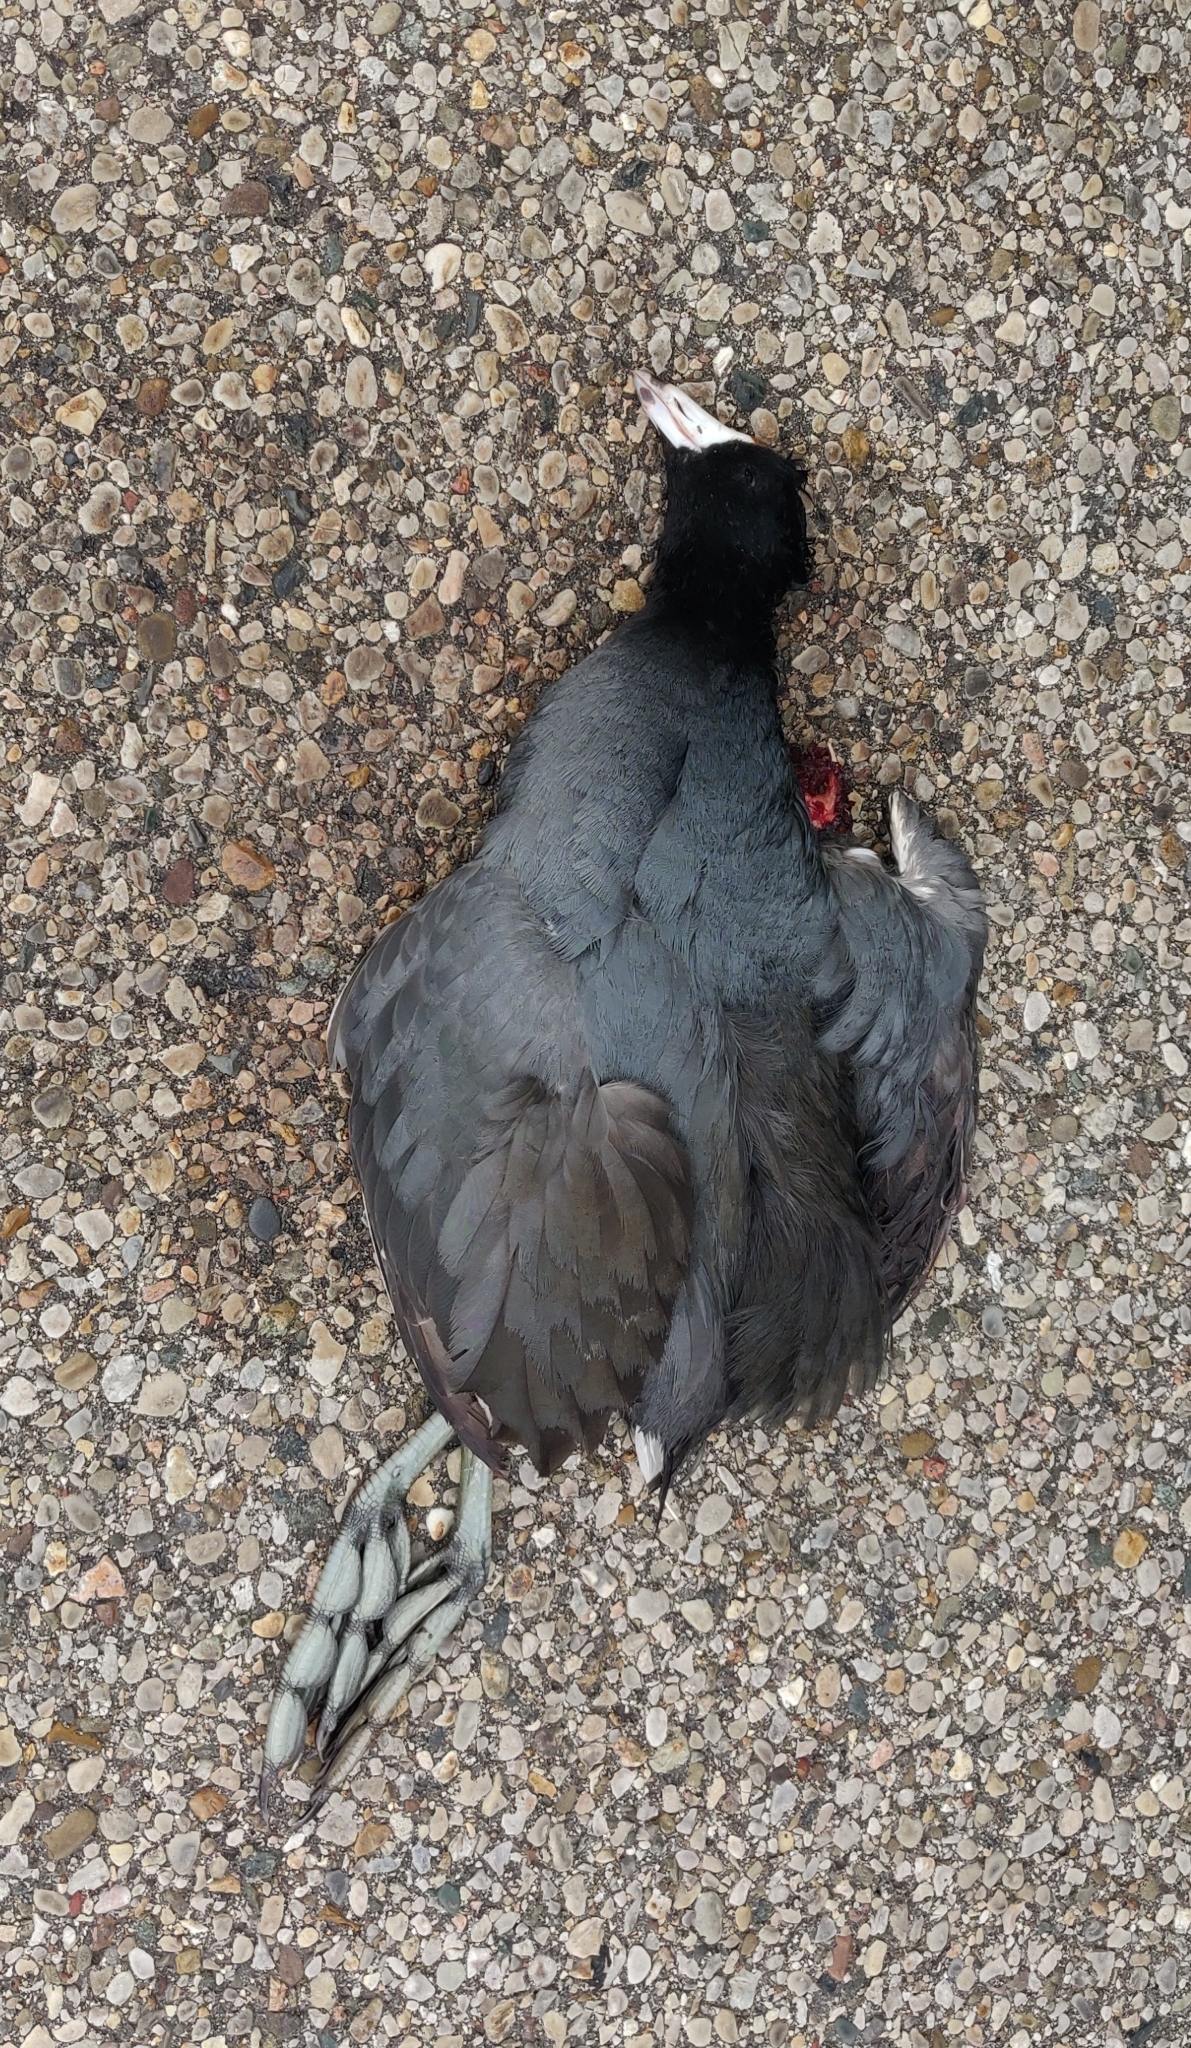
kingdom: Animalia
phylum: Chordata
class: Aves
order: Gruiformes
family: Rallidae
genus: Fulica
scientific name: Fulica americana
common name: American coot
